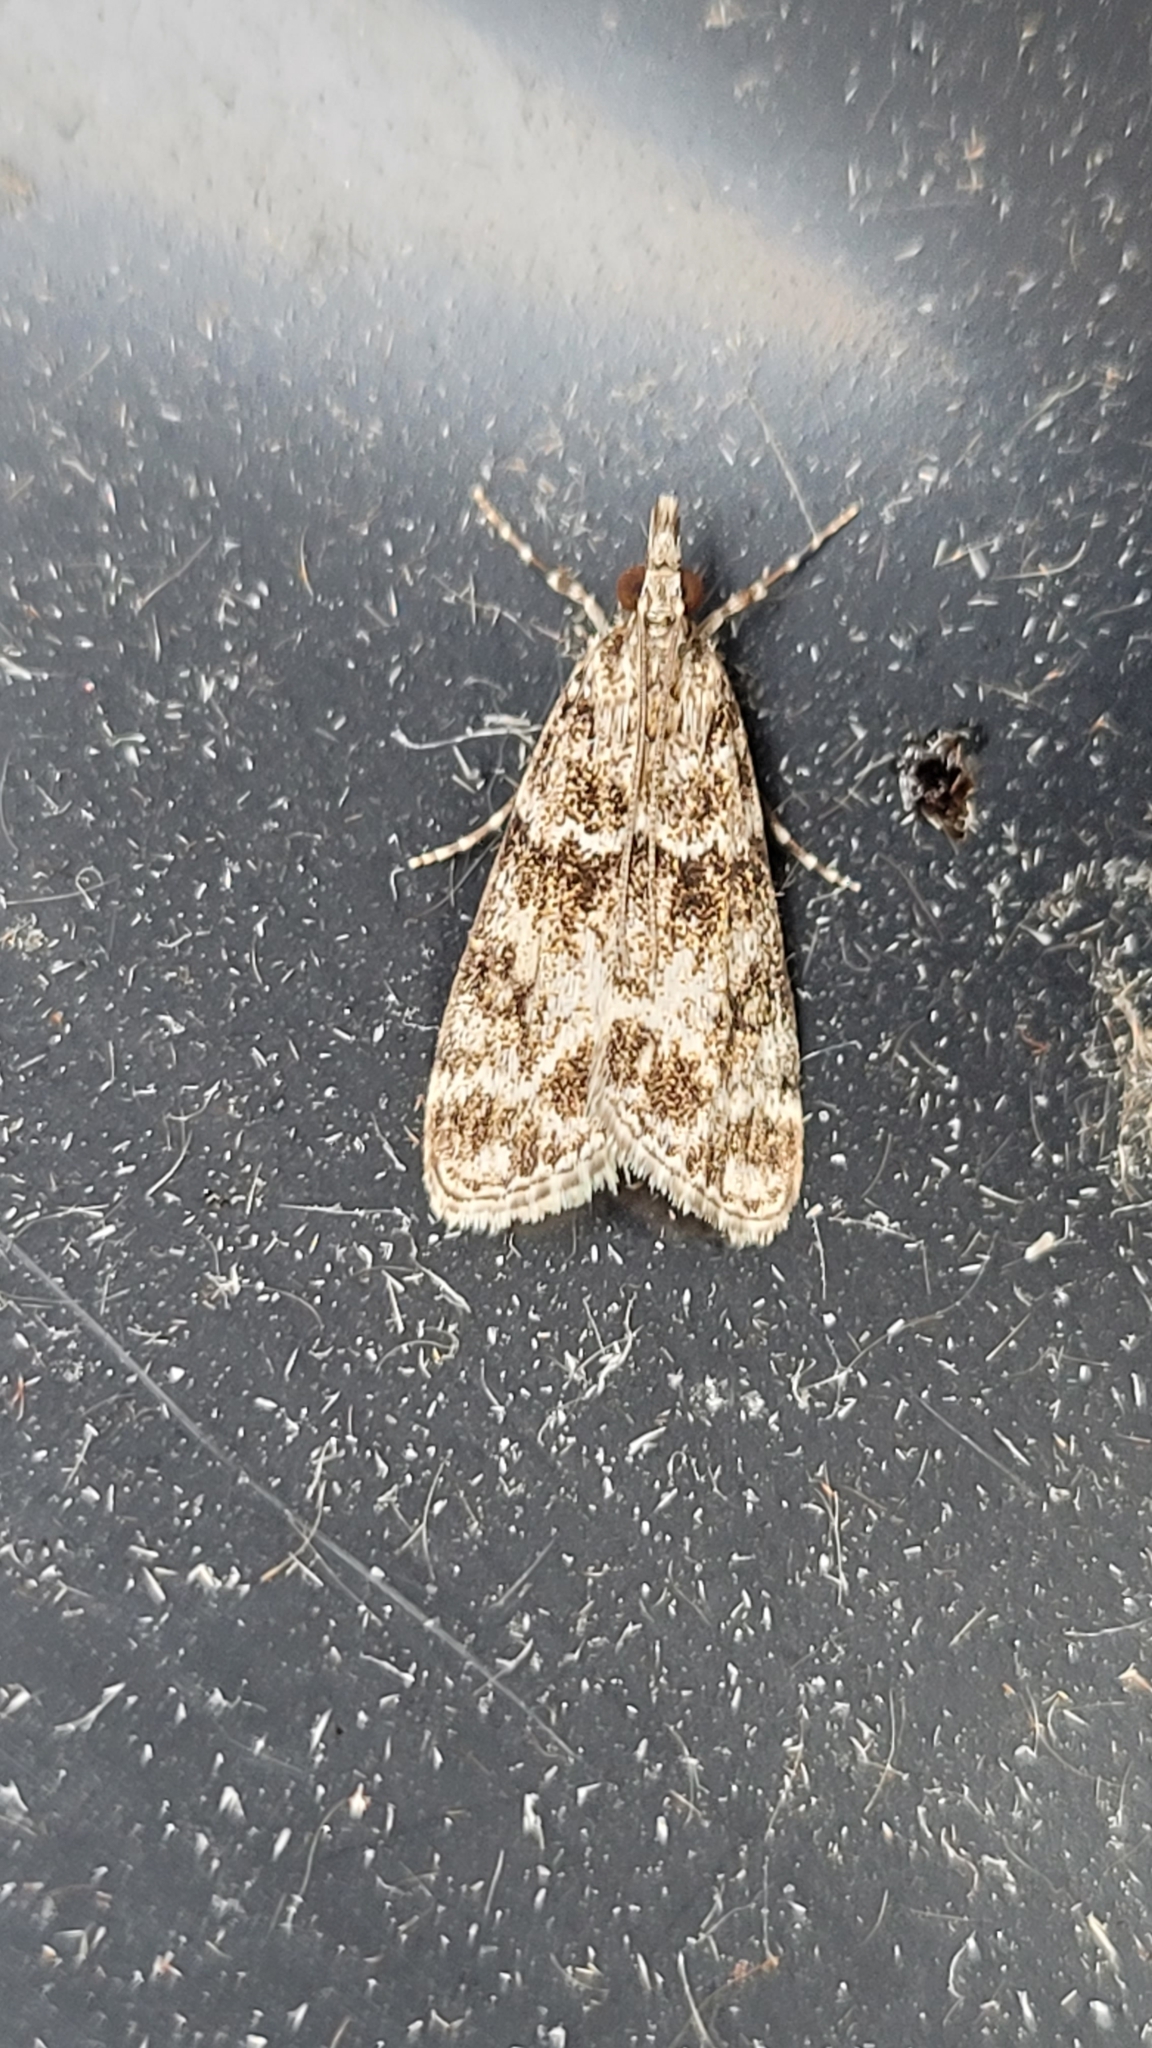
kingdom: Animalia
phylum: Arthropoda
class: Insecta
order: Lepidoptera
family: Crambidae
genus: Scoparia
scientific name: Scoparia ambigualis
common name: Common grey
